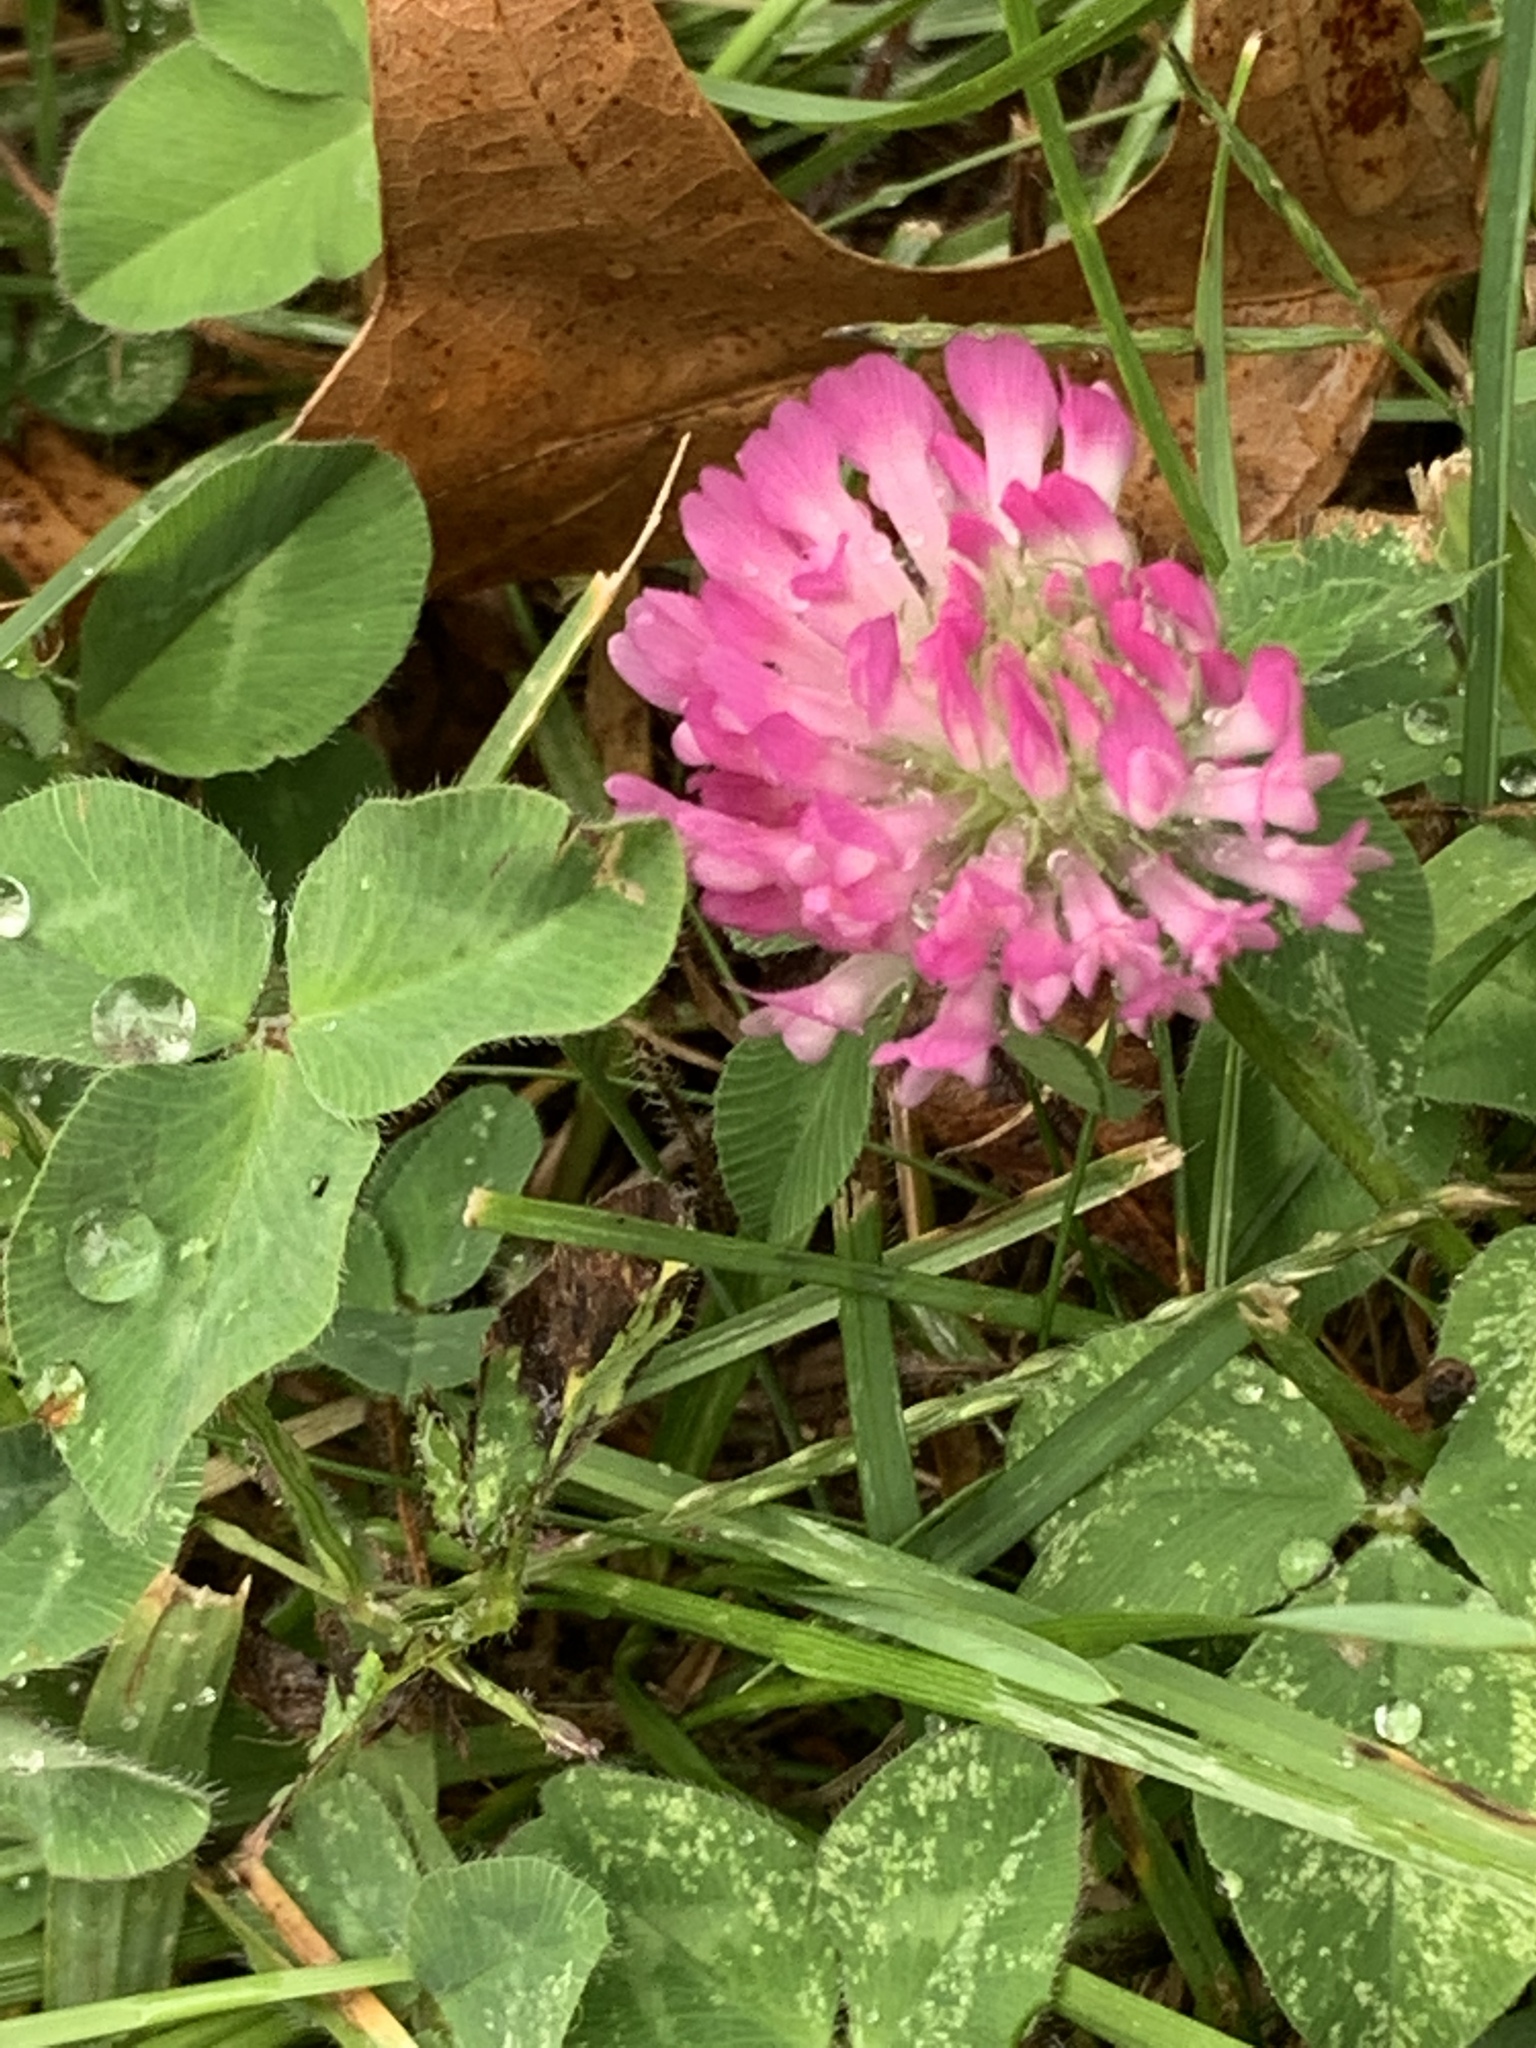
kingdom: Plantae
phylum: Tracheophyta
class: Magnoliopsida
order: Fabales
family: Fabaceae
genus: Trifolium
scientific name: Trifolium pratense
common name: Red clover
